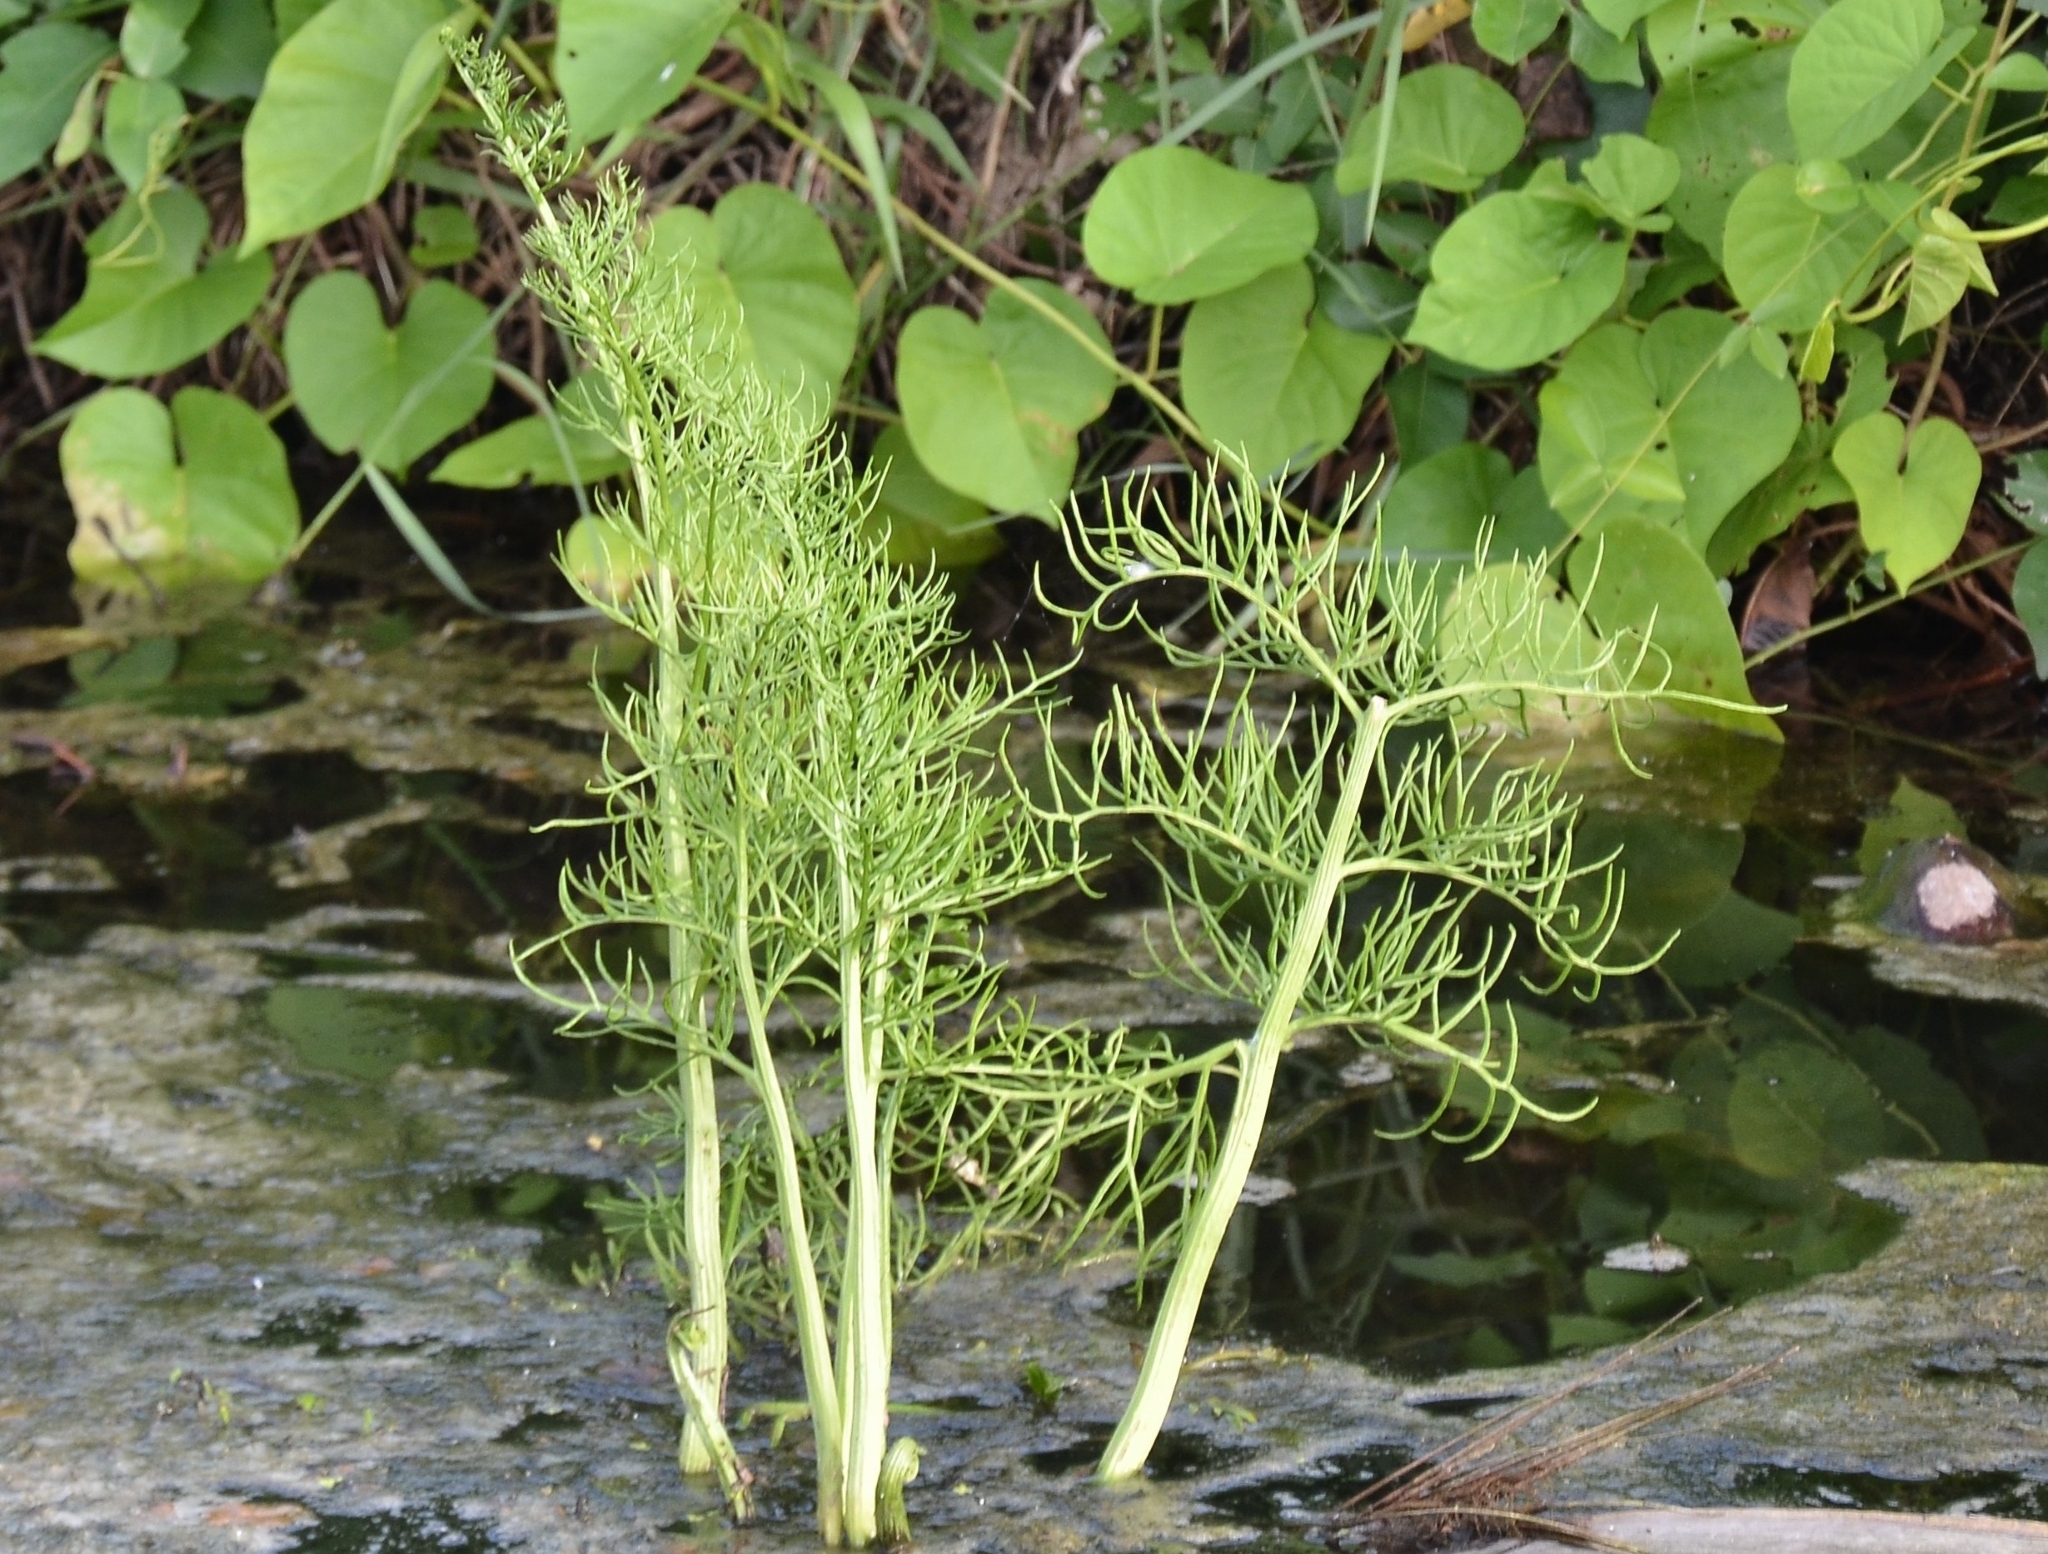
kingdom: Plantae
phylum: Tracheophyta
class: Polypodiopsida
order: Polypodiales
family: Pteridaceae
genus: Ceratopteris
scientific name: Ceratopteris thalictroides
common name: Water fern
